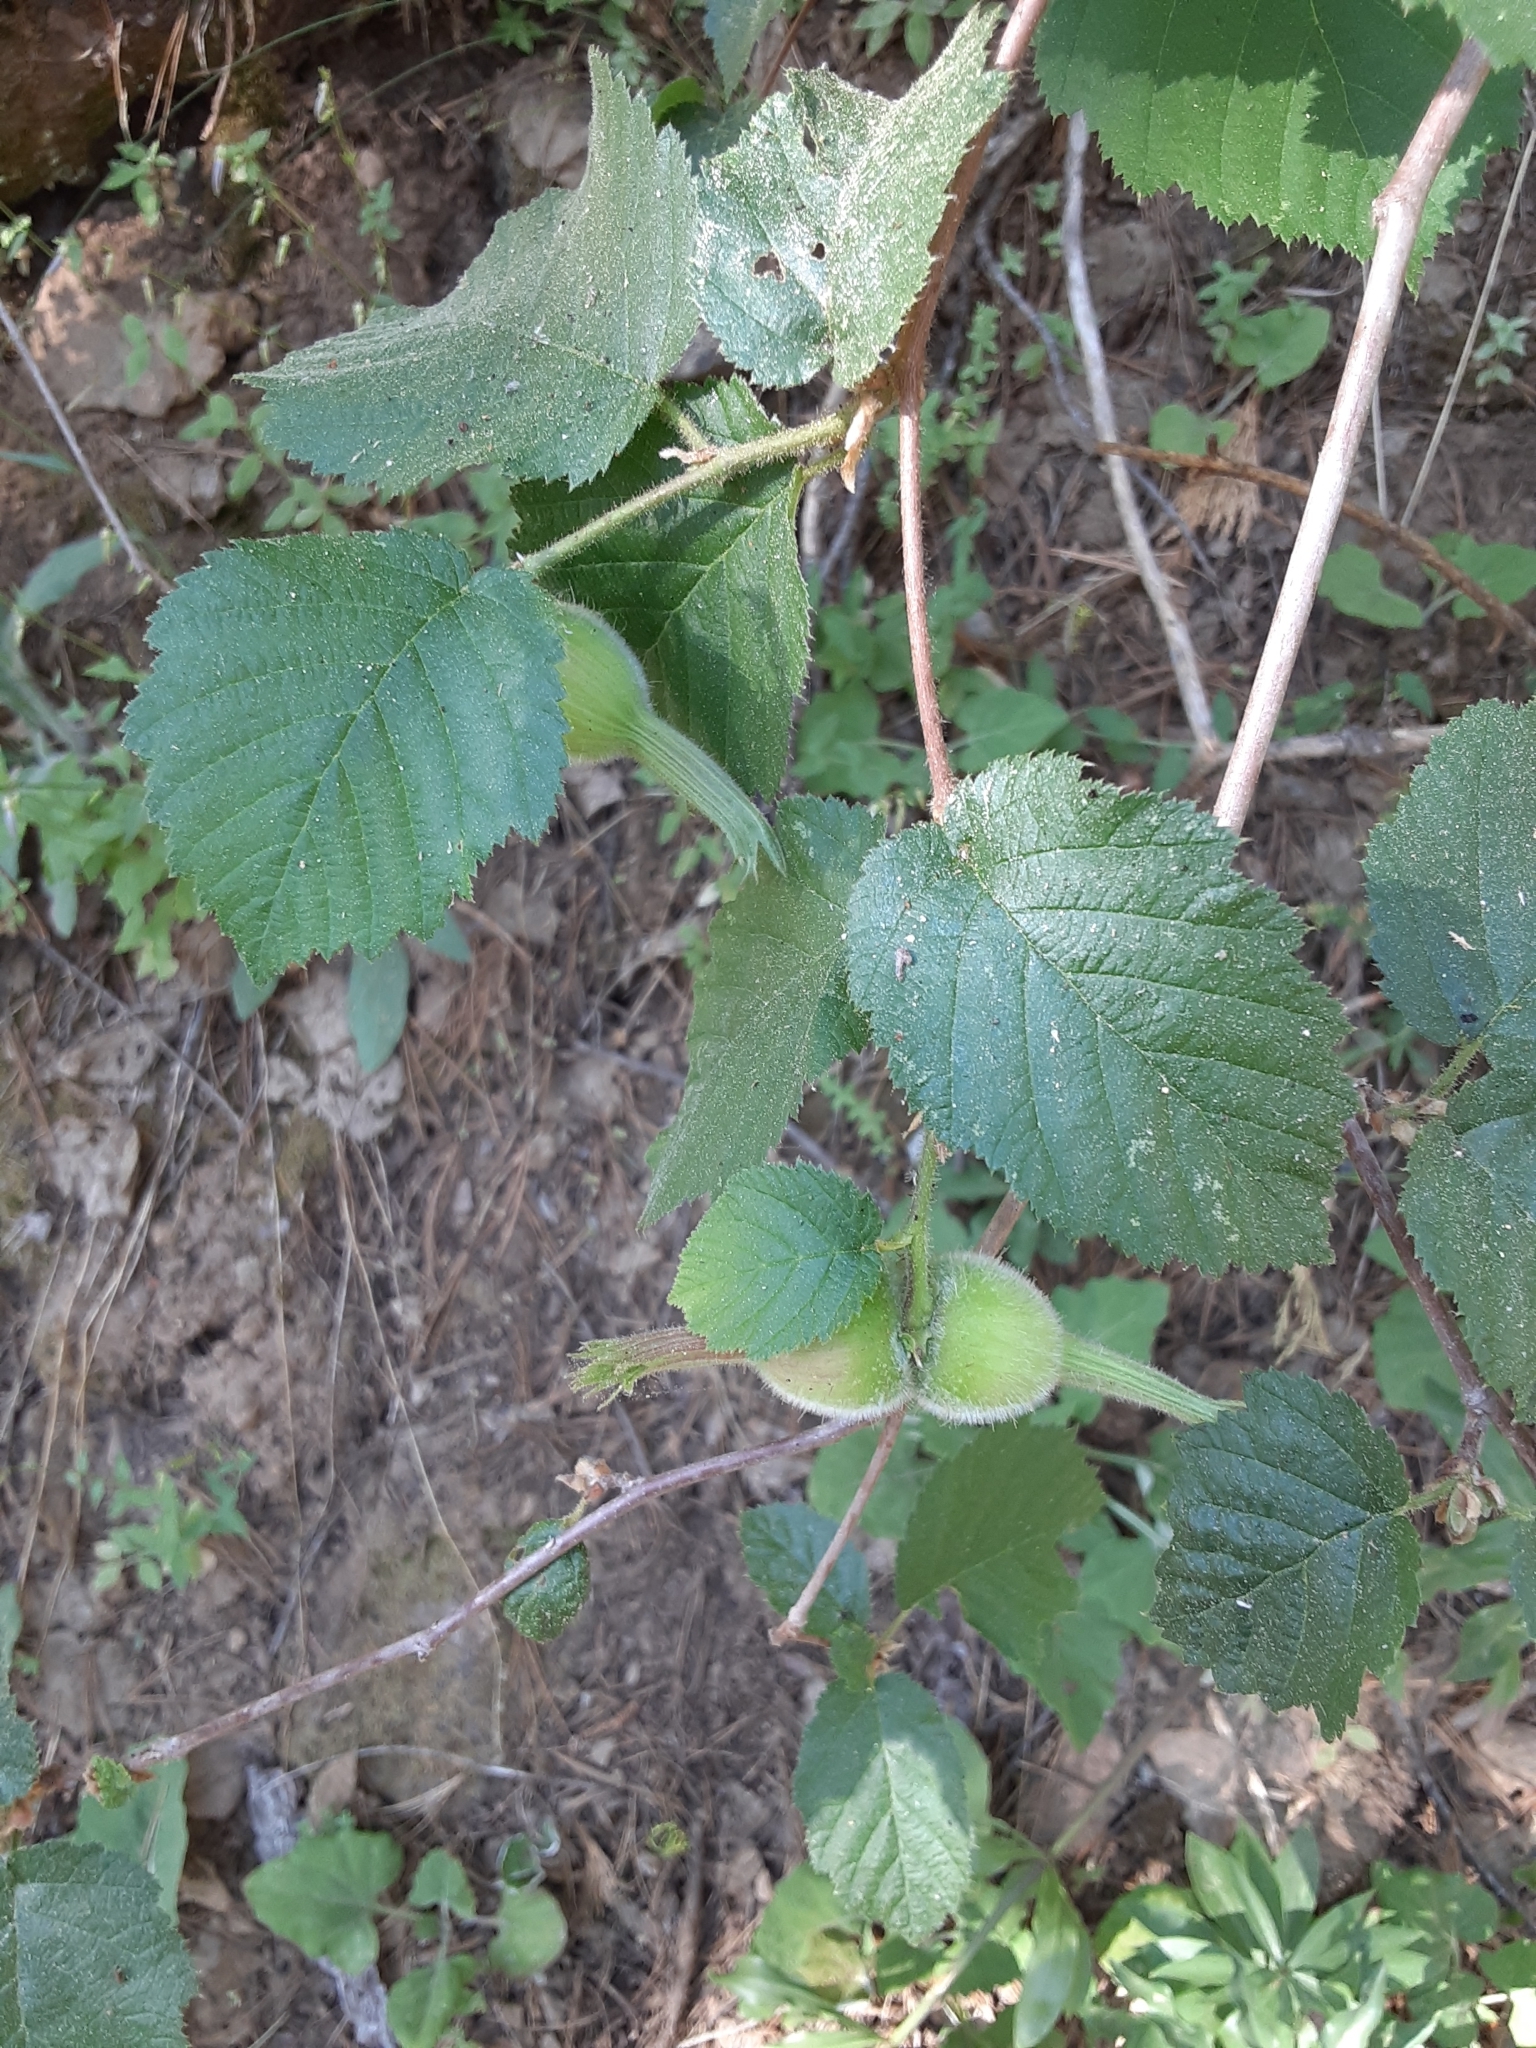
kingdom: Plantae
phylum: Tracheophyta
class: Magnoliopsida
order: Fagales
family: Betulaceae
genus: Corylus
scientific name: Corylus cornuta
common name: Beaked hazel
